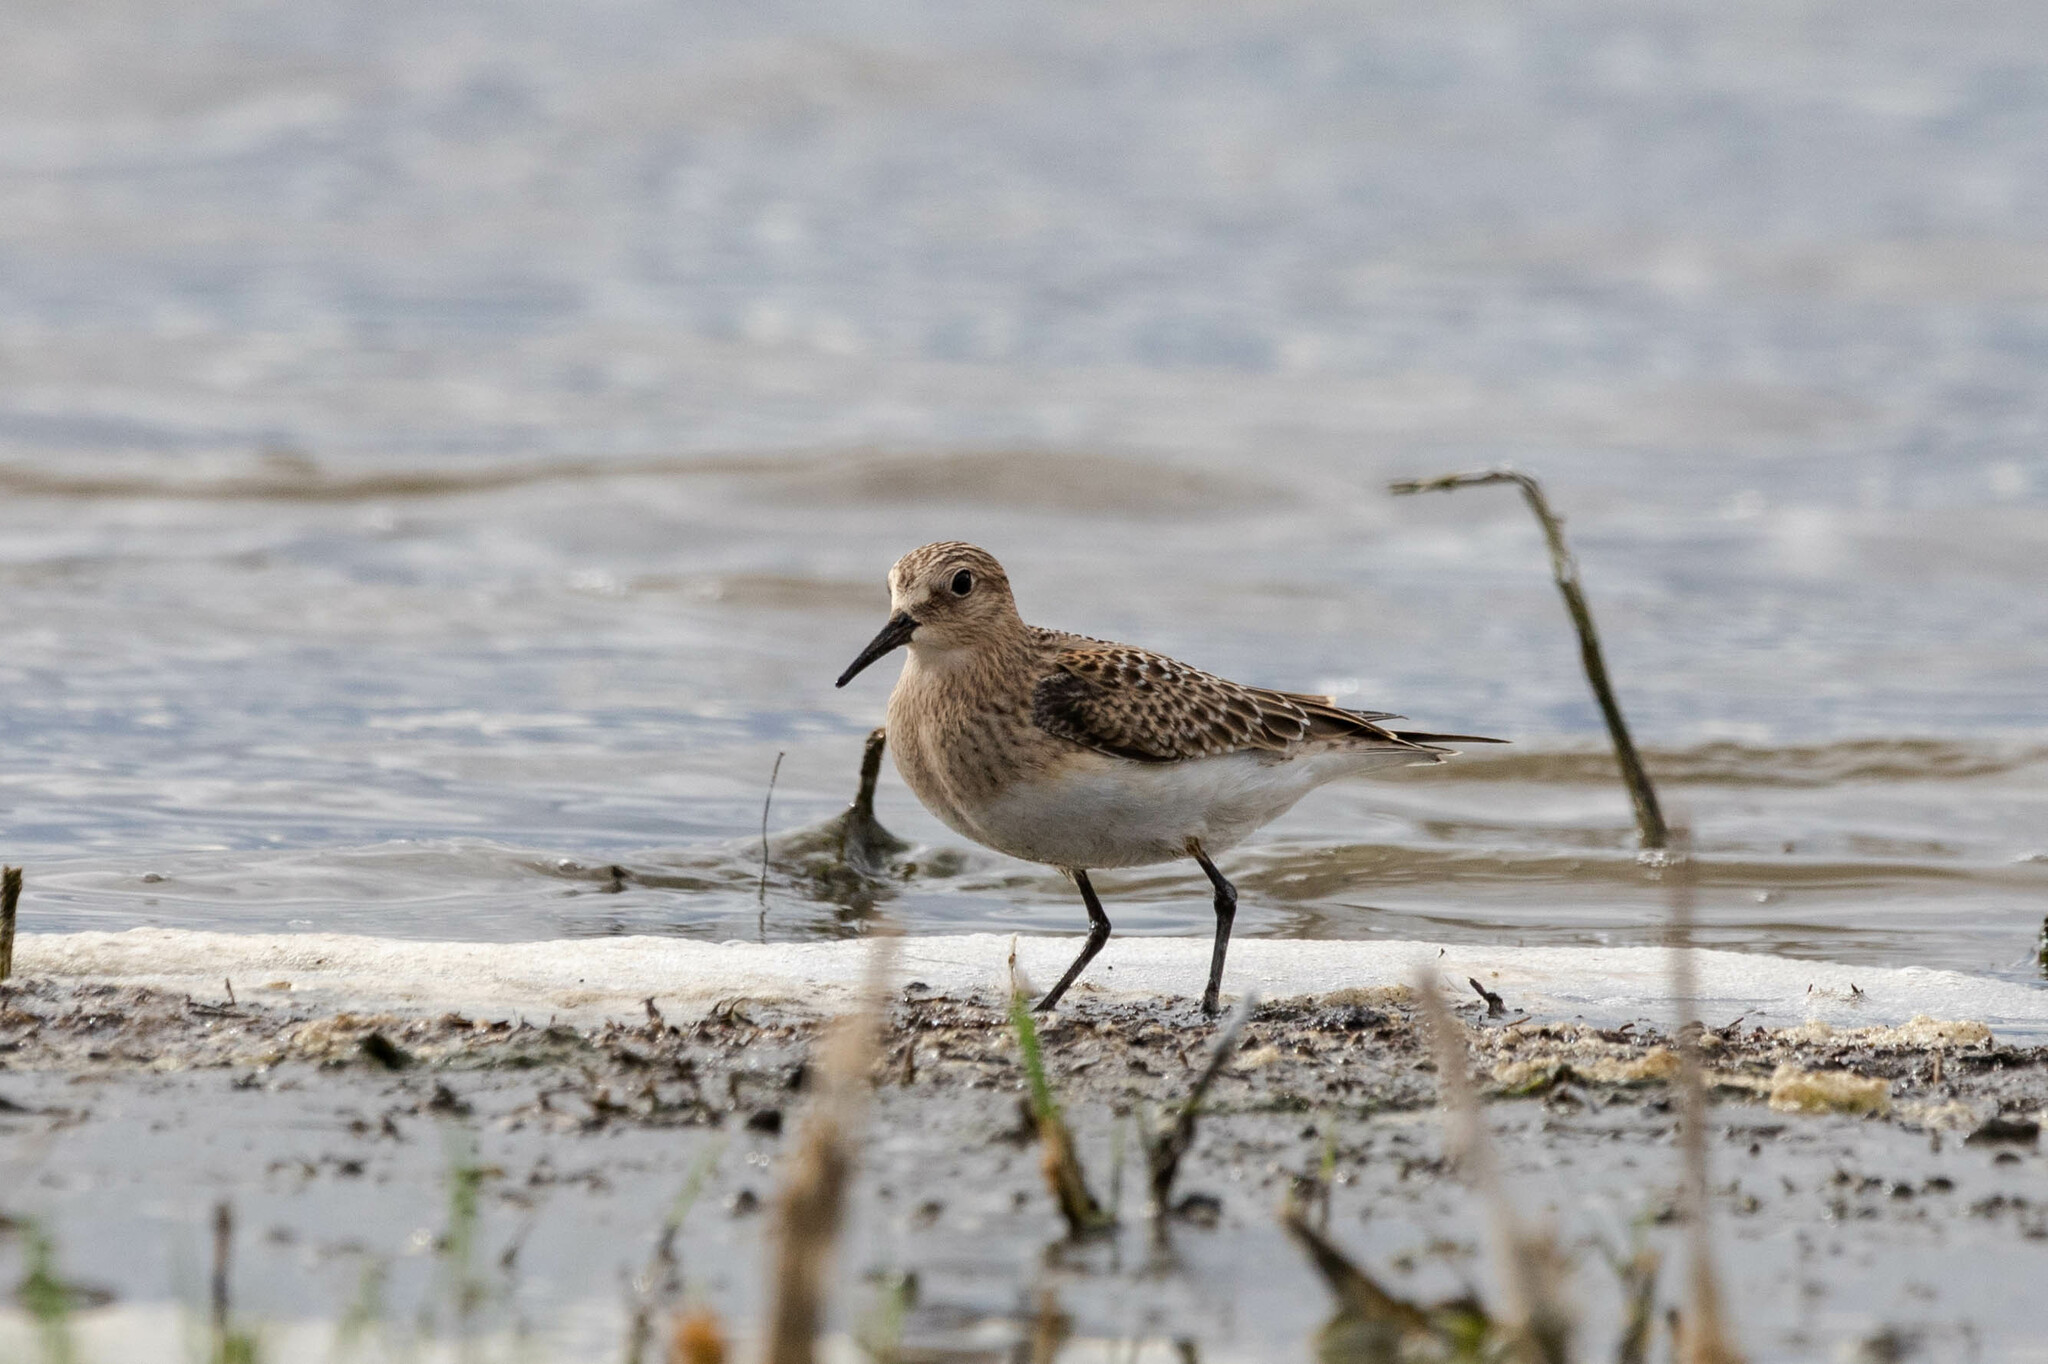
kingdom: Animalia
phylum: Chordata
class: Aves
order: Charadriiformes
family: Scolopacidae
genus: Calidris
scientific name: Calidris bairdii
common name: Baird's sandpiper
